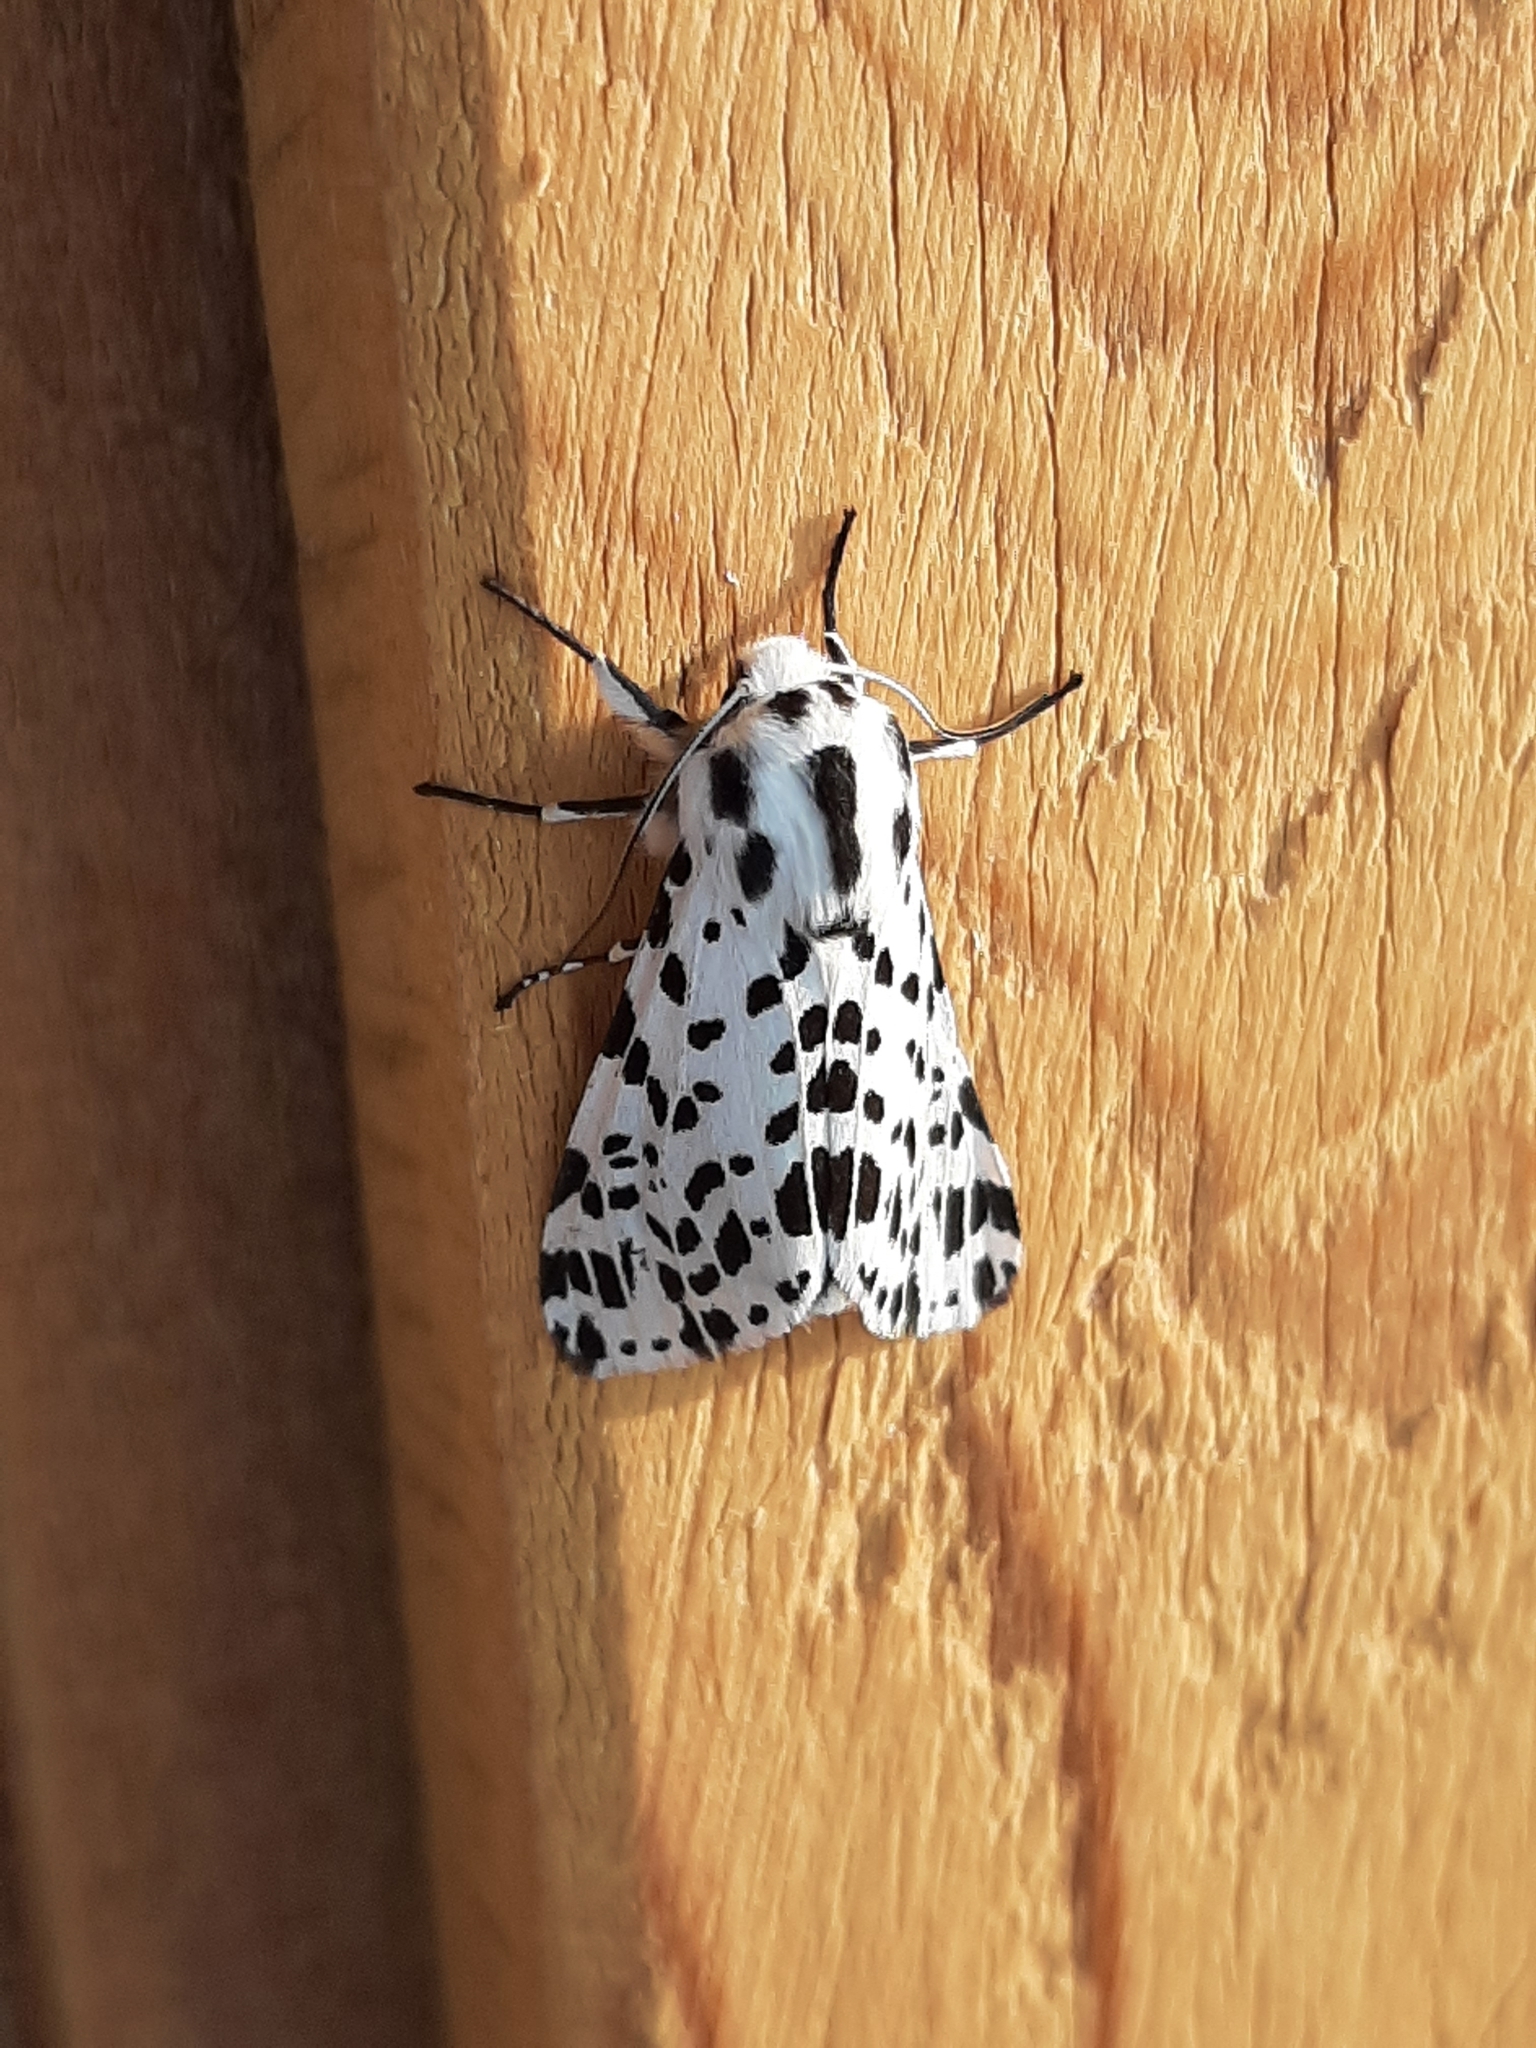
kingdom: Animalia
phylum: Arthropoda
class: Insecta
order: Lepidoptera
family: Erebidae
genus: Hypercompe
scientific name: Hypercompe permaculata
